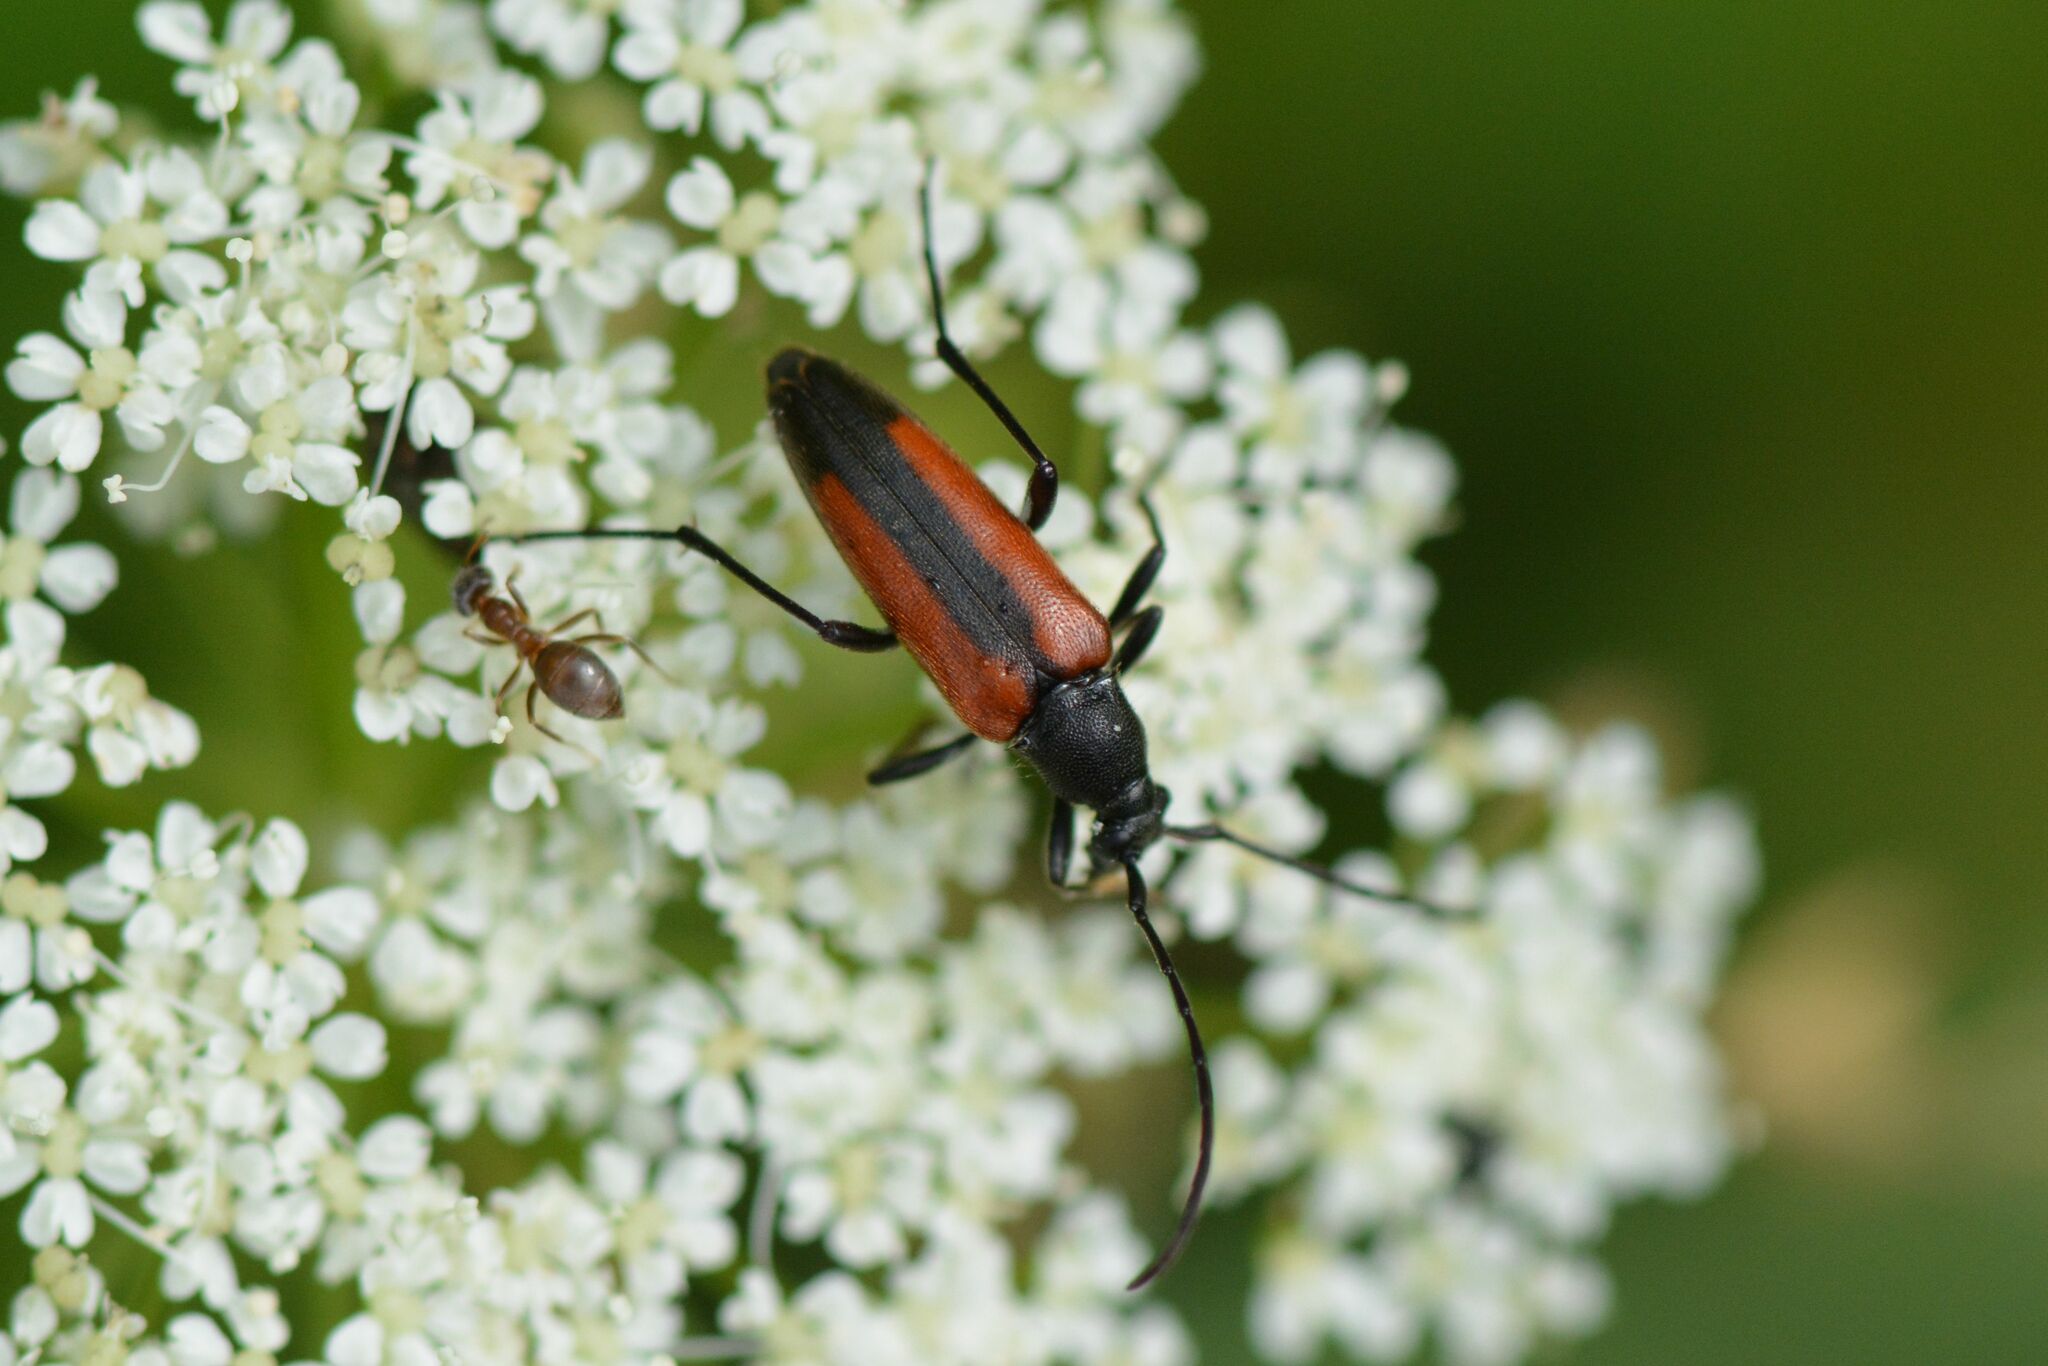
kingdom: Animalia
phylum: Arthropoda
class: Insecta
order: Coleoptera
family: Cerambycidae
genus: Stenurella
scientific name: Stenurella melanura
